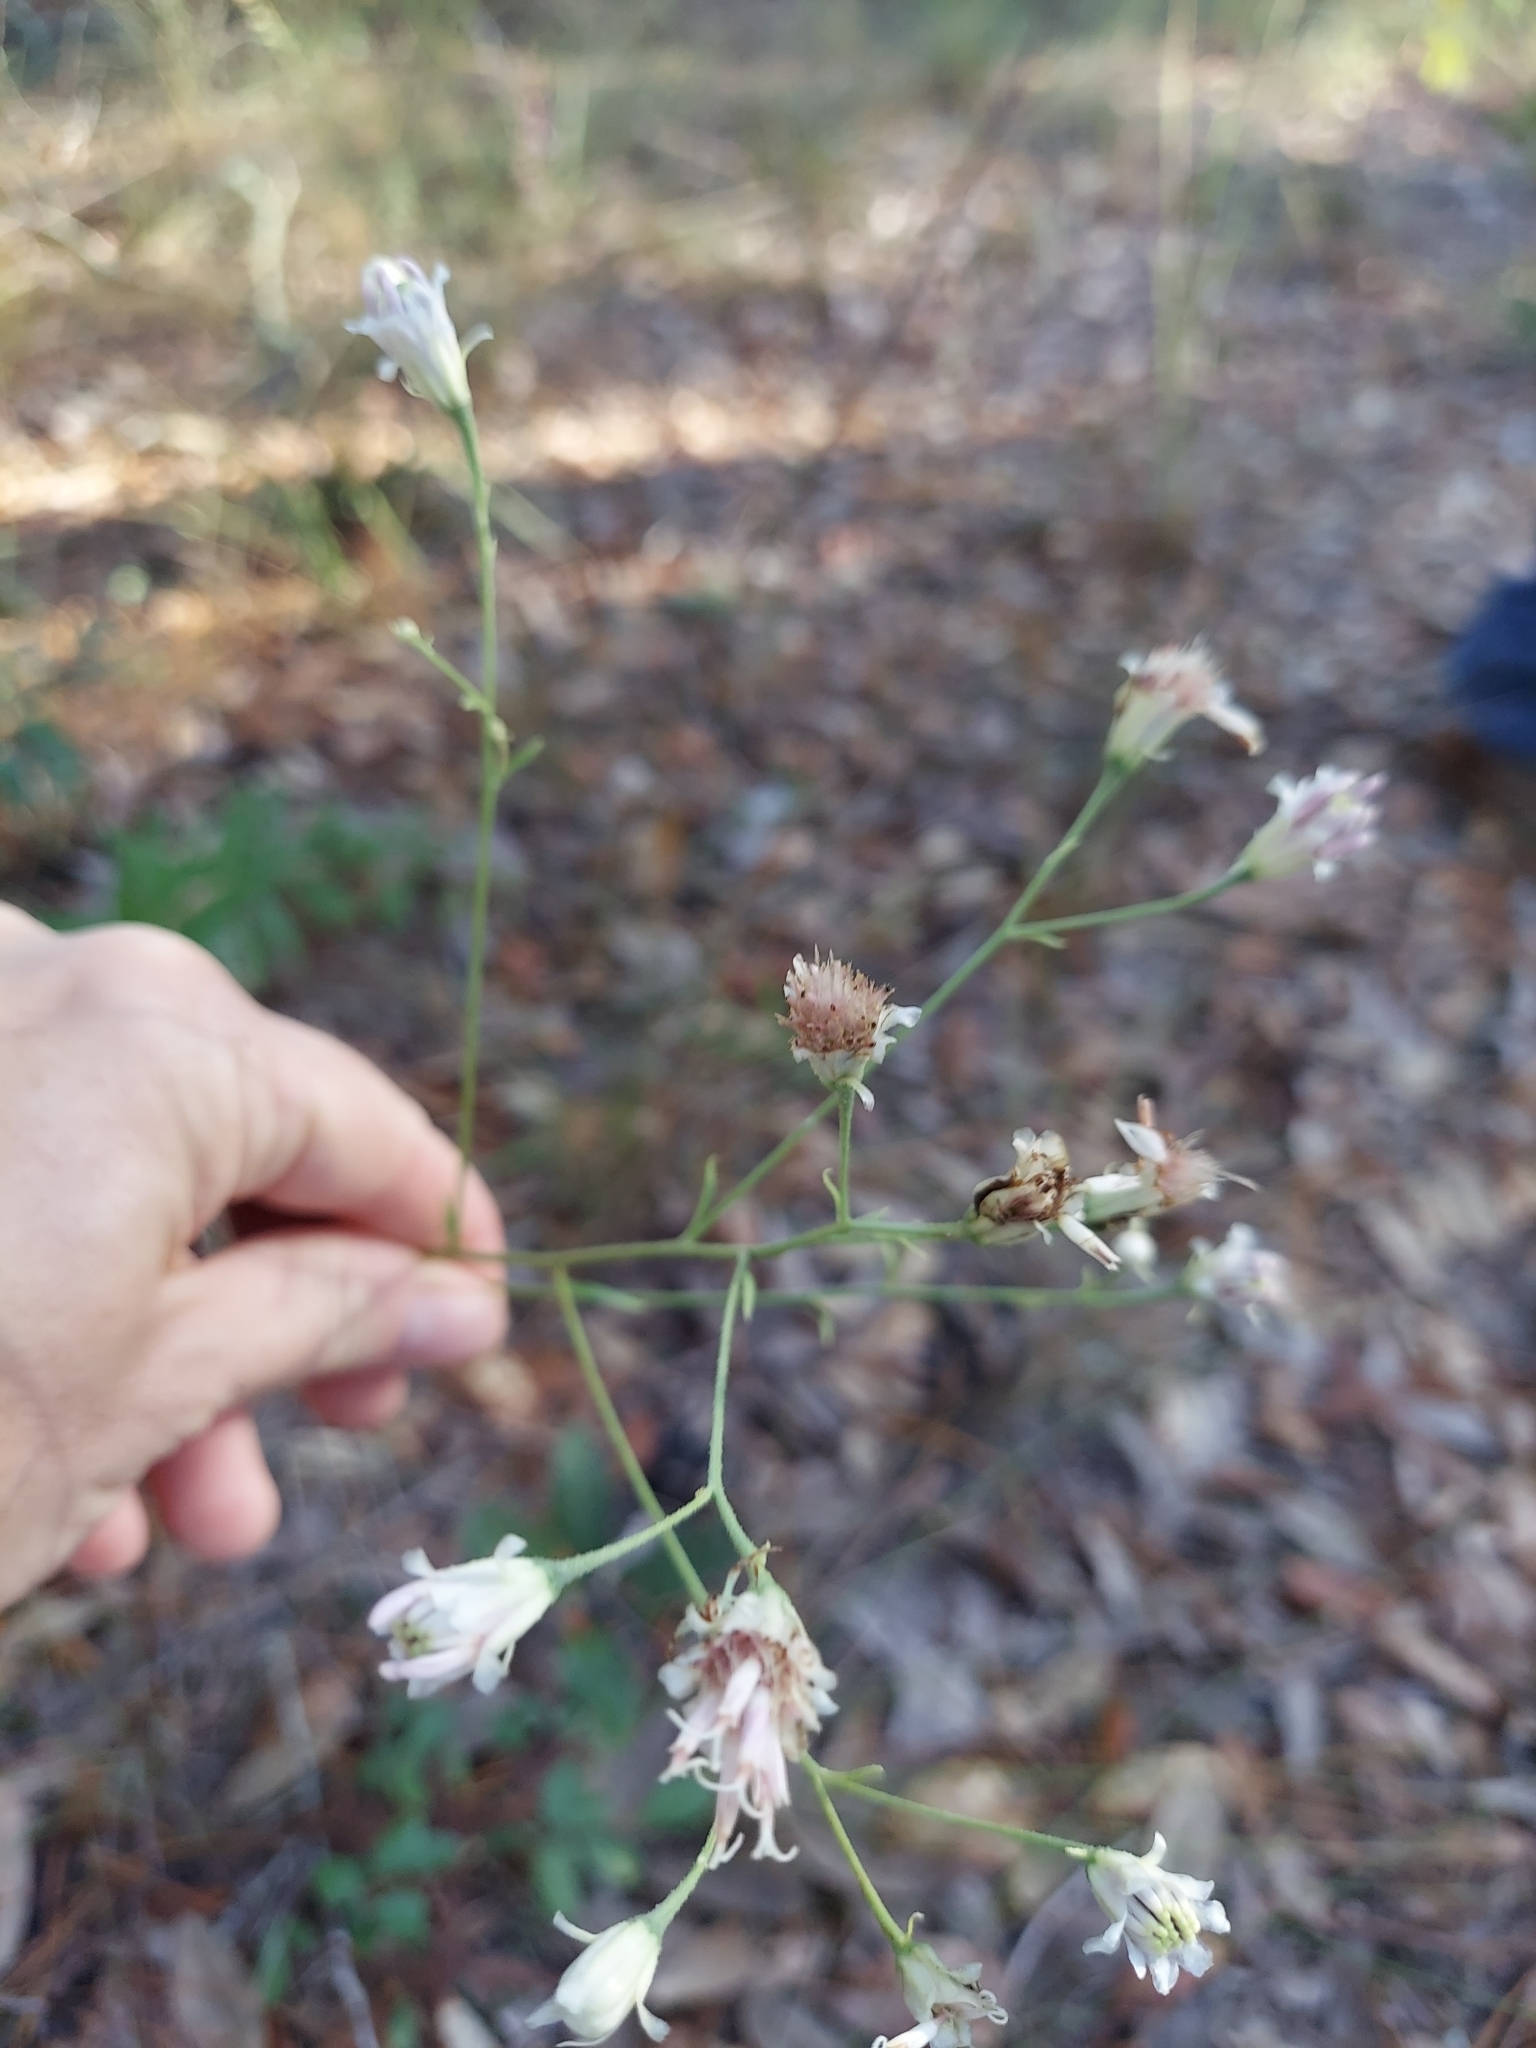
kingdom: Plantae
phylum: Tracheophyta
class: Magnoliopsida
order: Asterales
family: Asteraceae
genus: Palafoxia
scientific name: Palafoxia integrifolia
